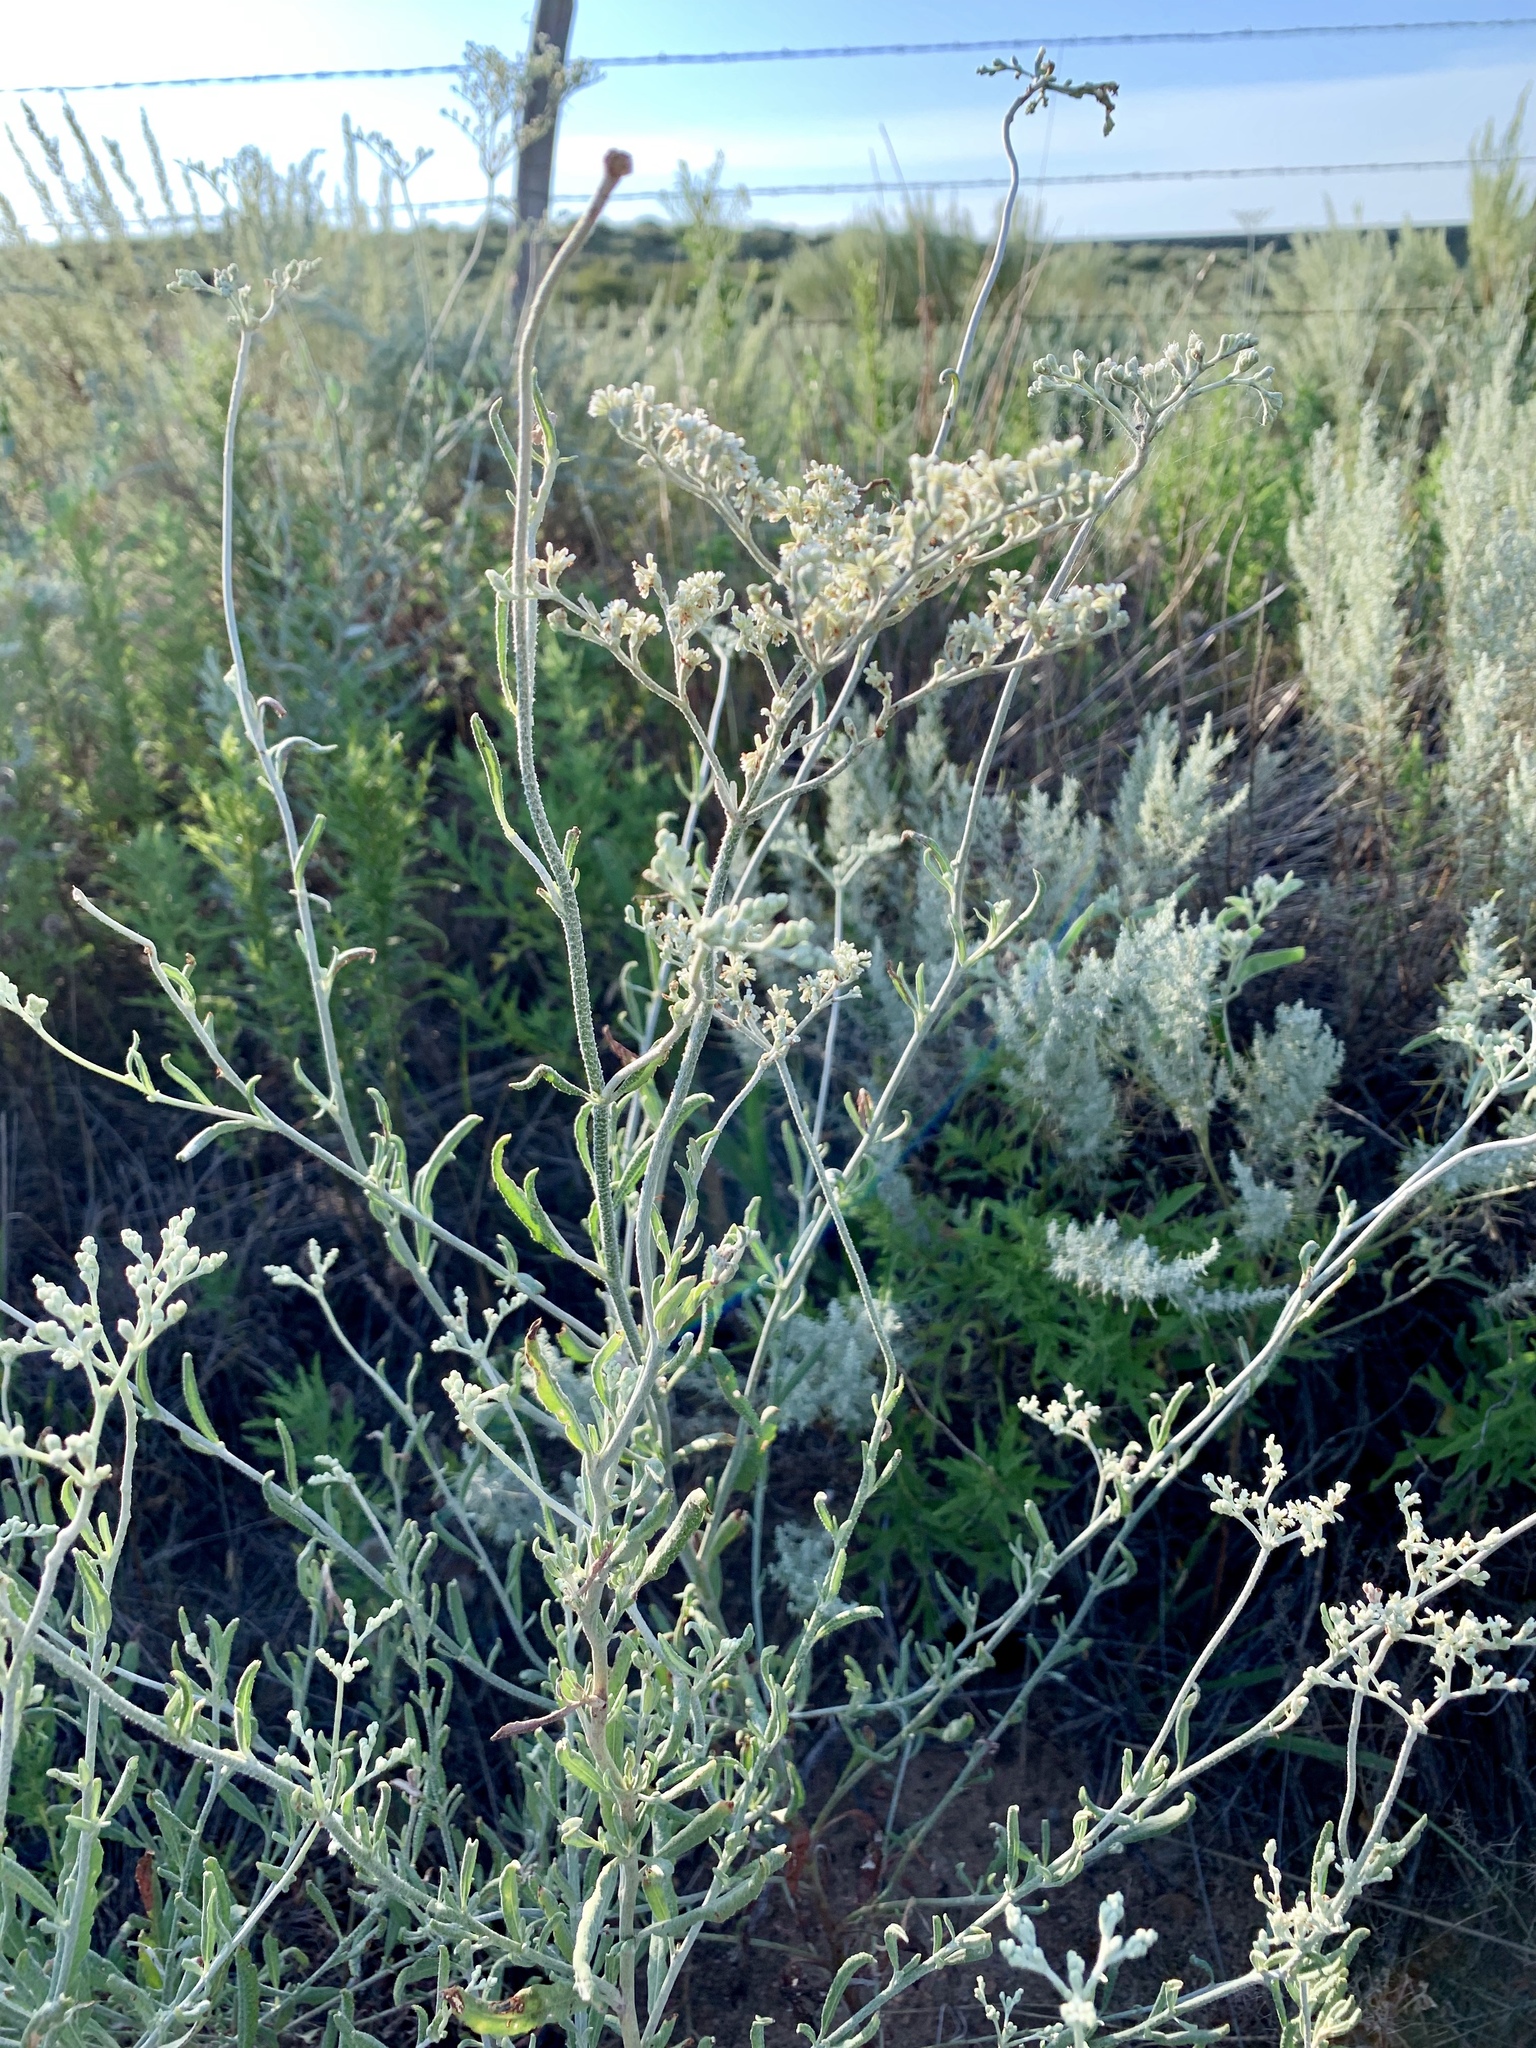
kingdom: Plantae
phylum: Tracheophyta
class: Magnoliopsida
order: Caryophyllales
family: Polygonaceae
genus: Eriogonum
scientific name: Eriogonum annuum
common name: Annual wild buckwheat
